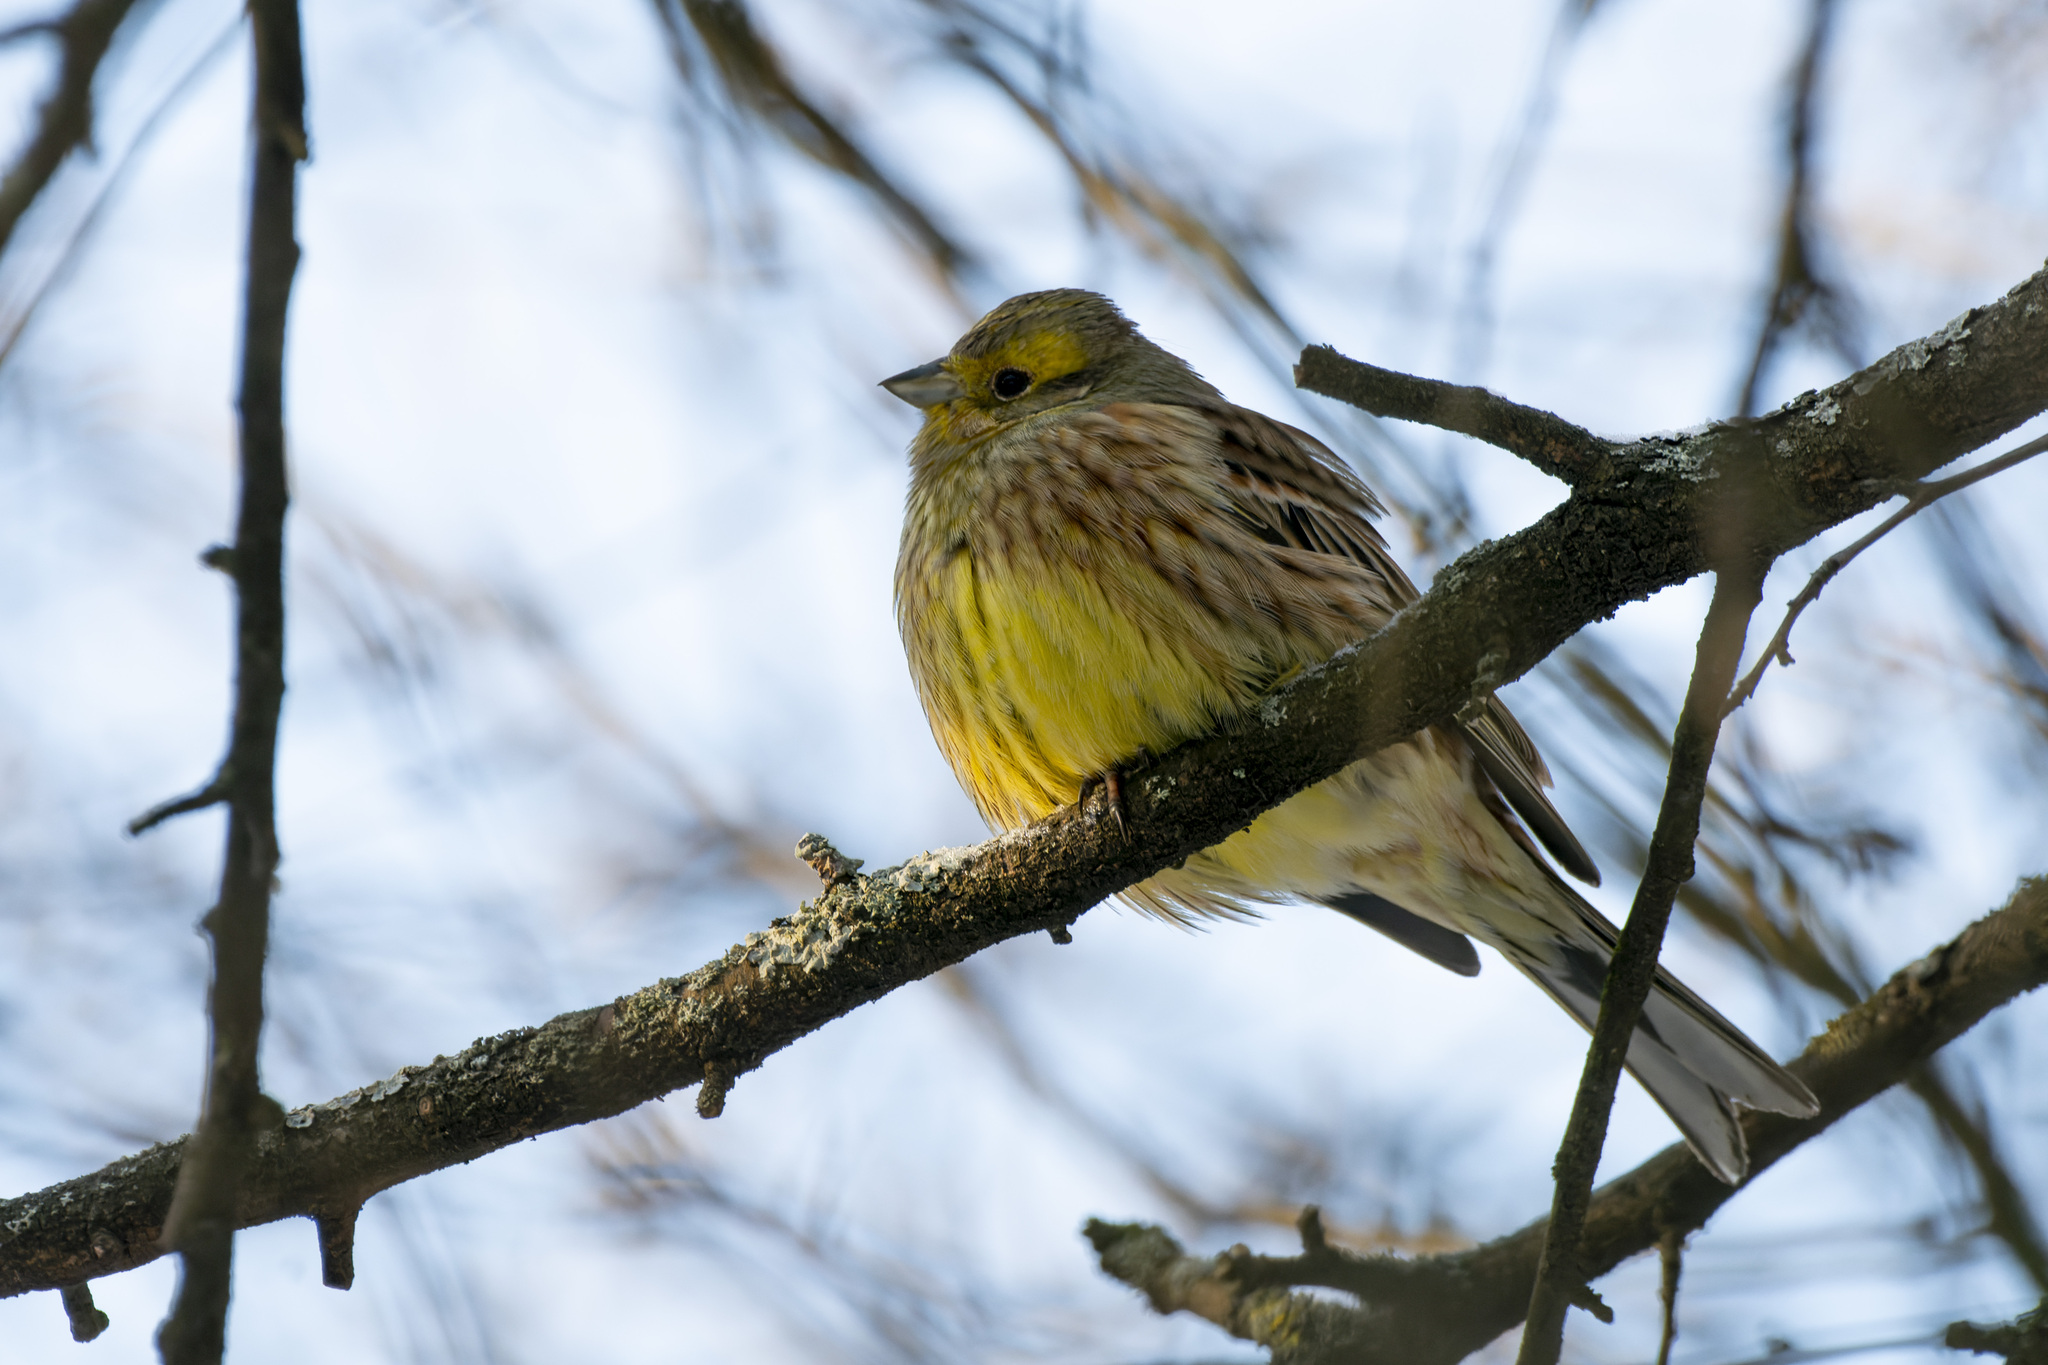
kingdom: Animalia
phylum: Chordata
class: Aves
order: Passeriformes
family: Emberizidae
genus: Emberiza
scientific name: Emberiza citrinella
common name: Yellowhammer
